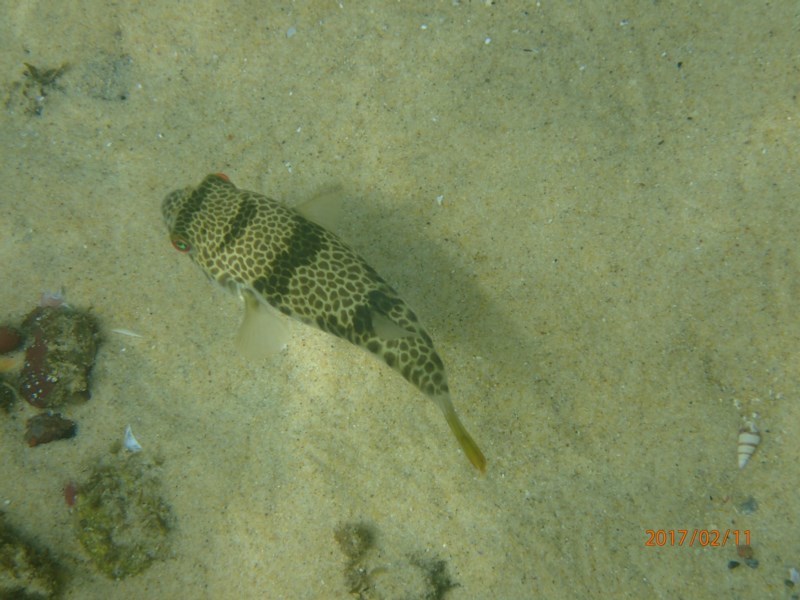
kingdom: Animalia
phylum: Chordata
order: Tetraodontiformes
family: Tetraodontidae
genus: Tetractenos
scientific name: Tetractenos glaber
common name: Smooth toadfish
